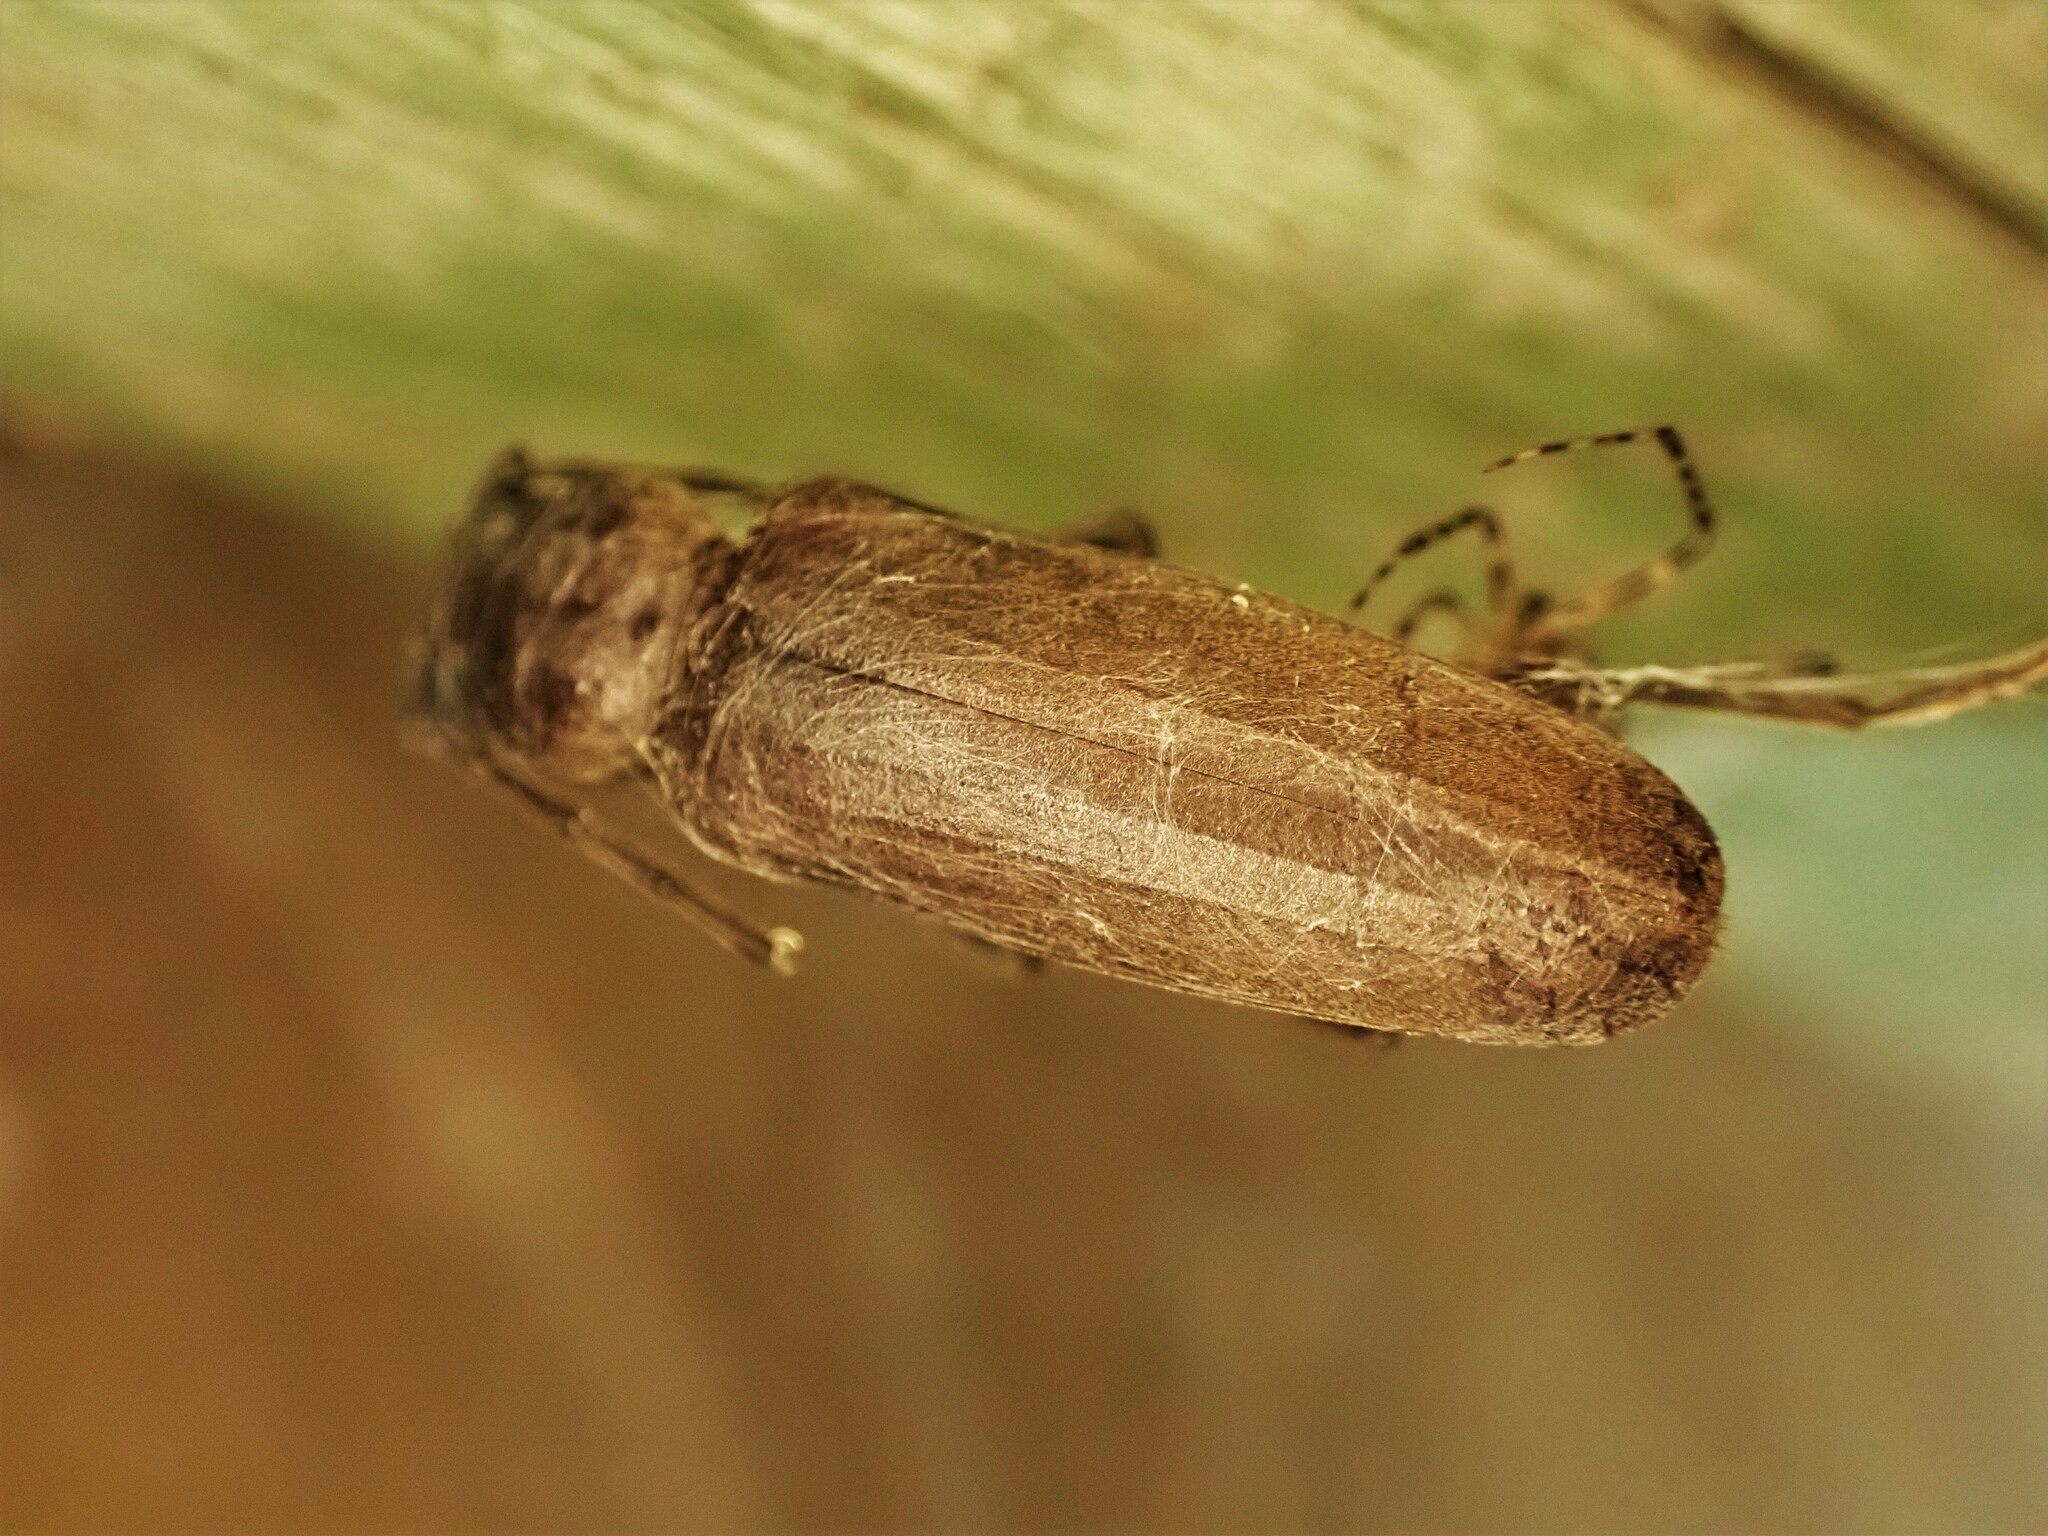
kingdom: Animalia
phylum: Arthropoda
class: Insecta
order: Coleoptera
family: Cerambycidae
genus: Arhopalus
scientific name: Arhopalus ferus
